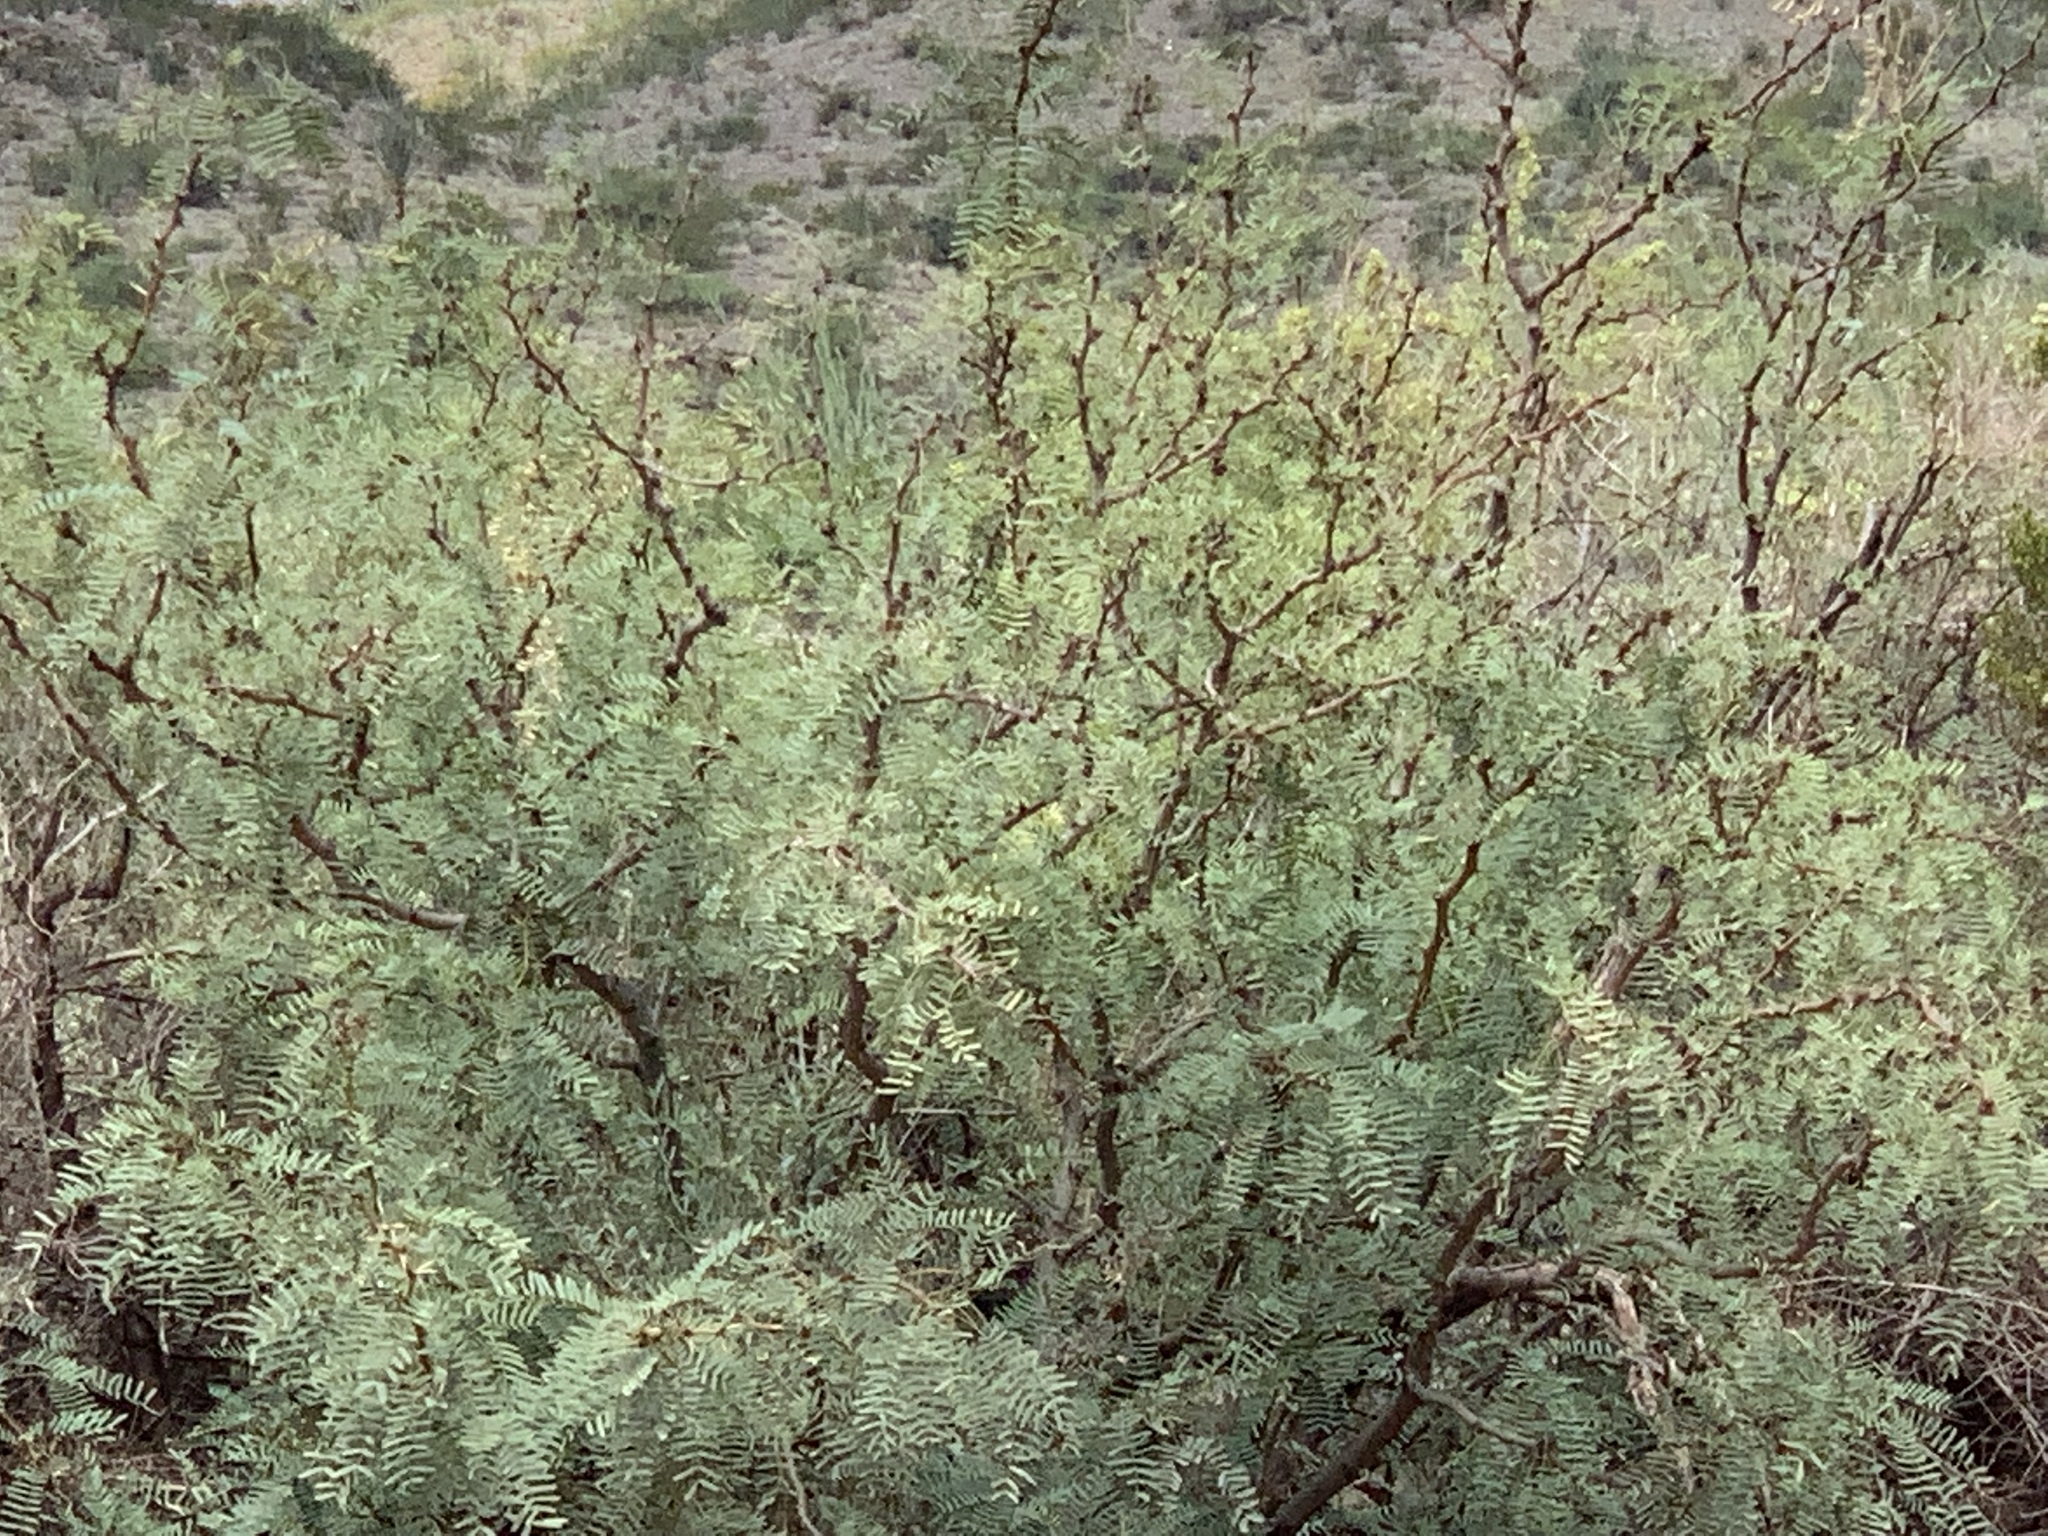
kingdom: Plantae
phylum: Tracheophyta
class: Magnoliopsida
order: Fabales
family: Fabaceae
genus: Prosopis
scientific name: Prosopis glandulosa
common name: Honey mesquite
